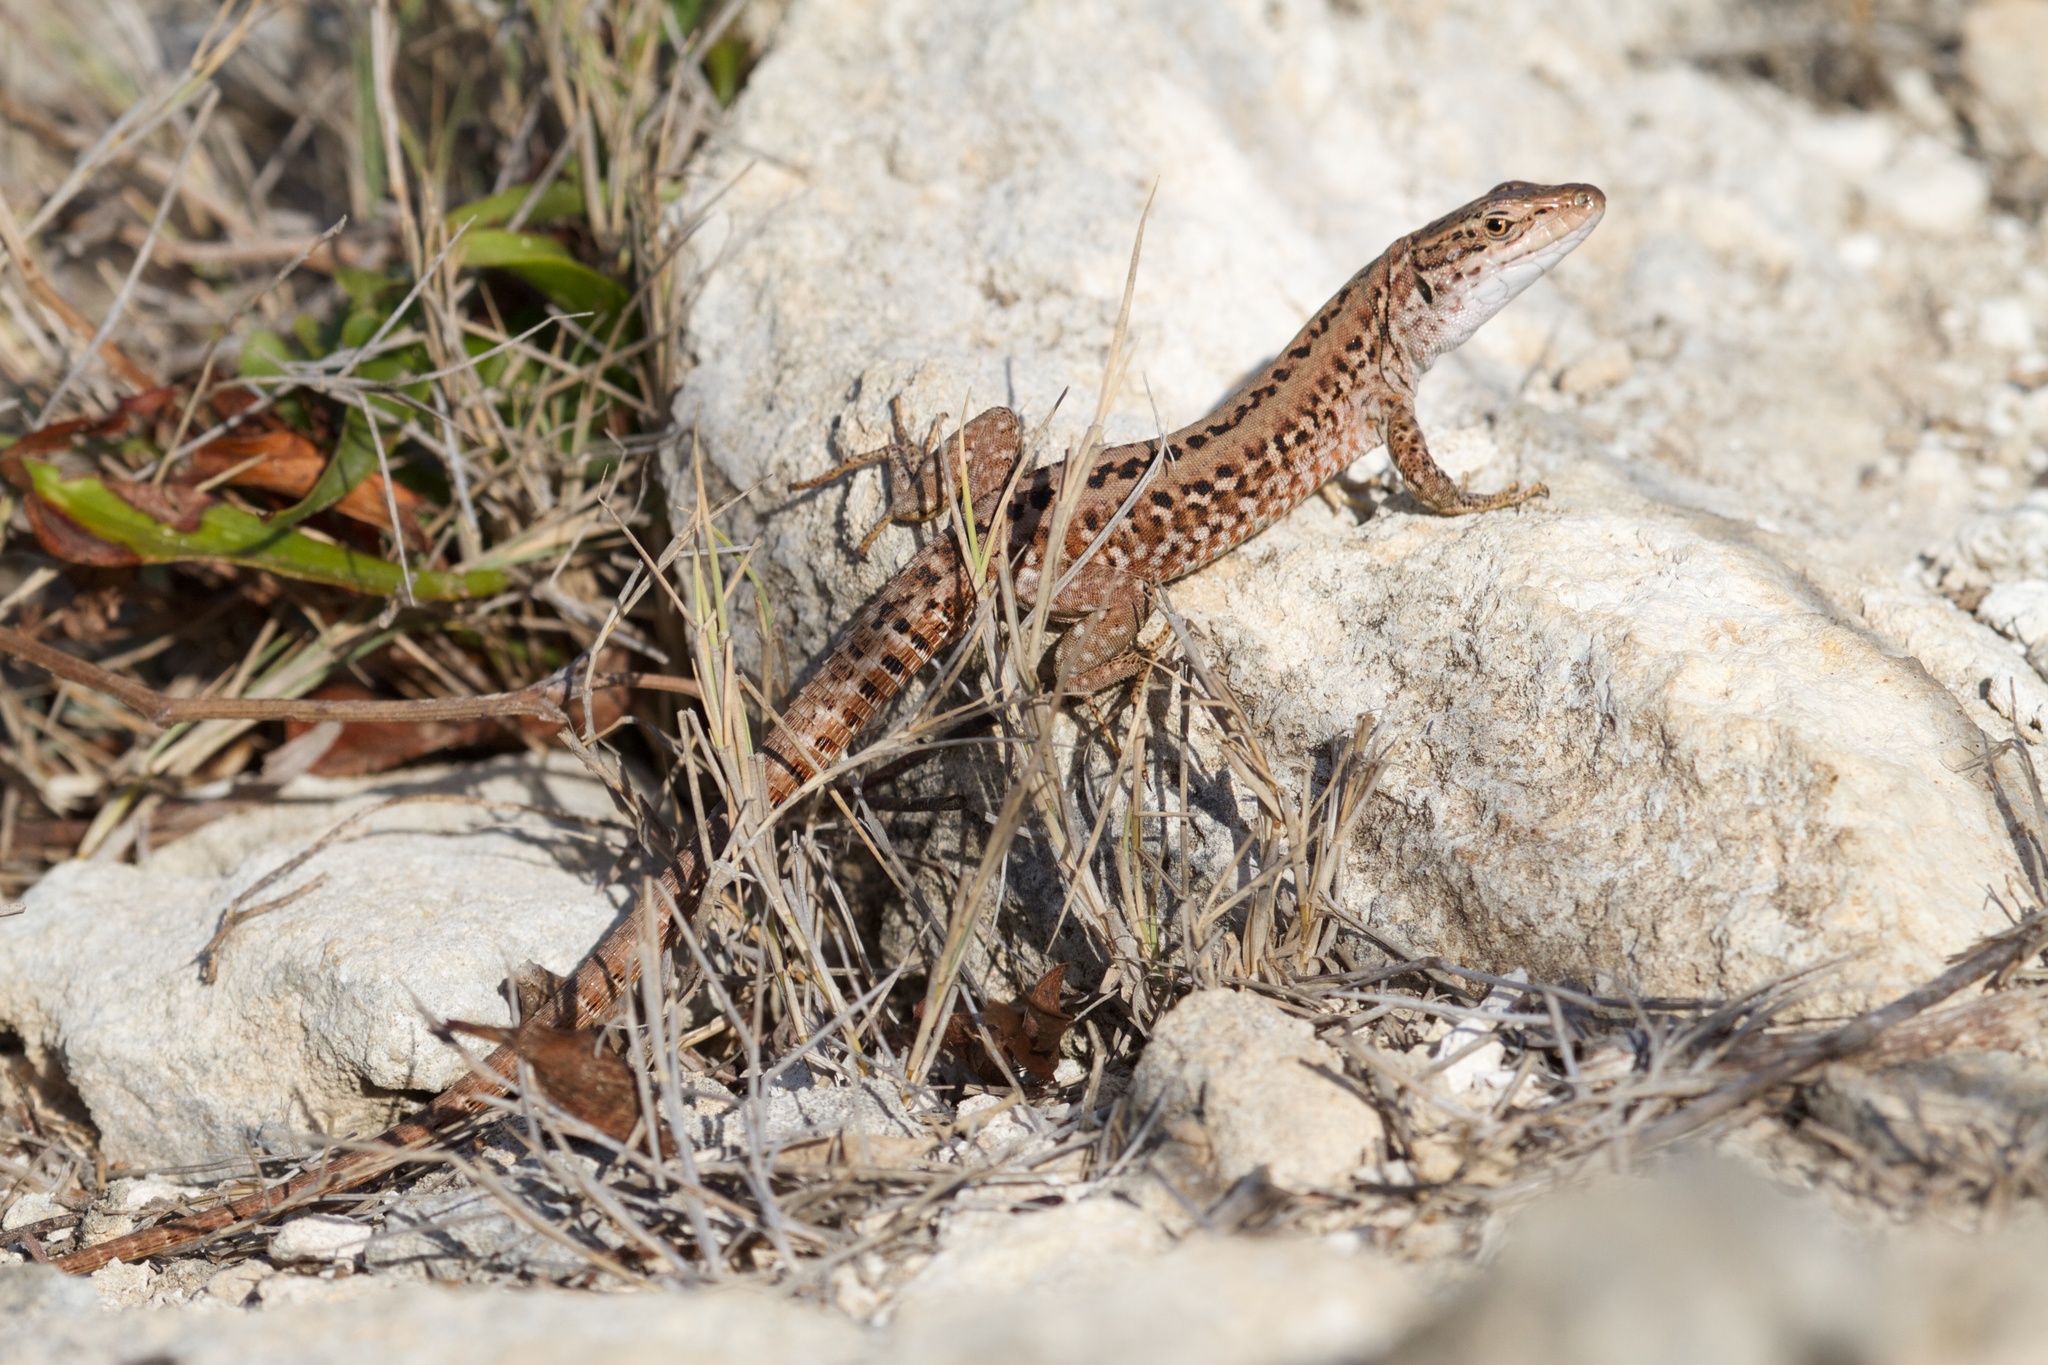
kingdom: Animalia
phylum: Chordata
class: Squamata
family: Lacertidae
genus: Podarcis
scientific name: Podarcis siculus
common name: Italian wall lizard
